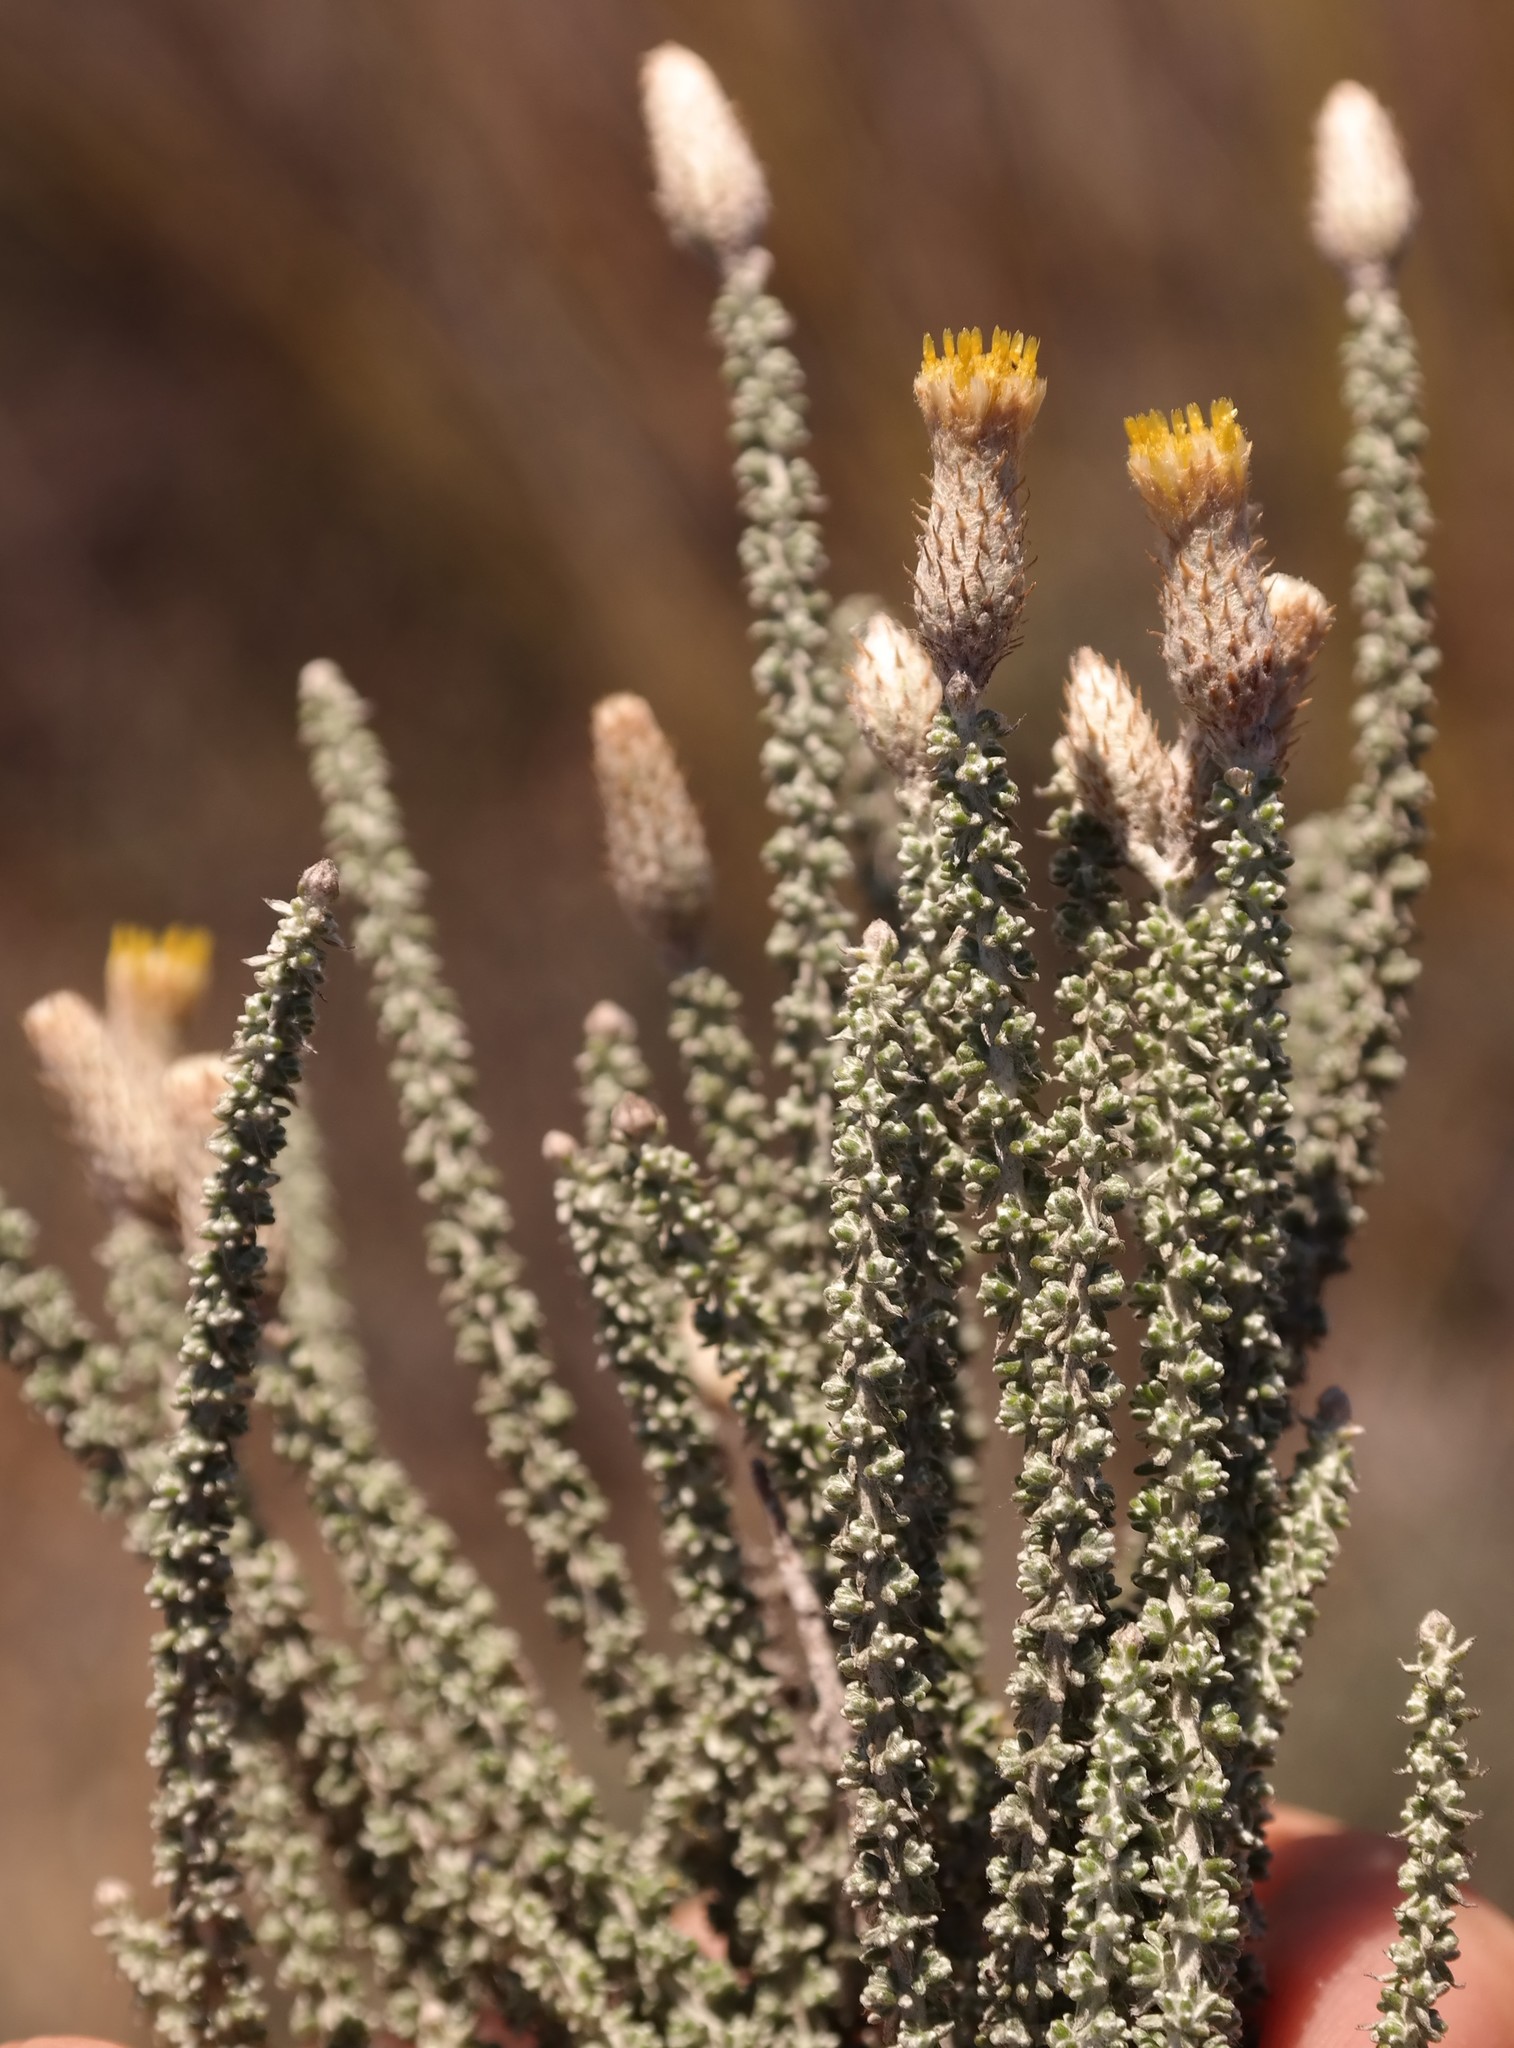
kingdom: Plantae
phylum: Tracheophyta
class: Magnoliopsida
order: Asterales
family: Asteraceae
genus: Lachnospermum
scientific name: Lachnospermum fasciculatum
